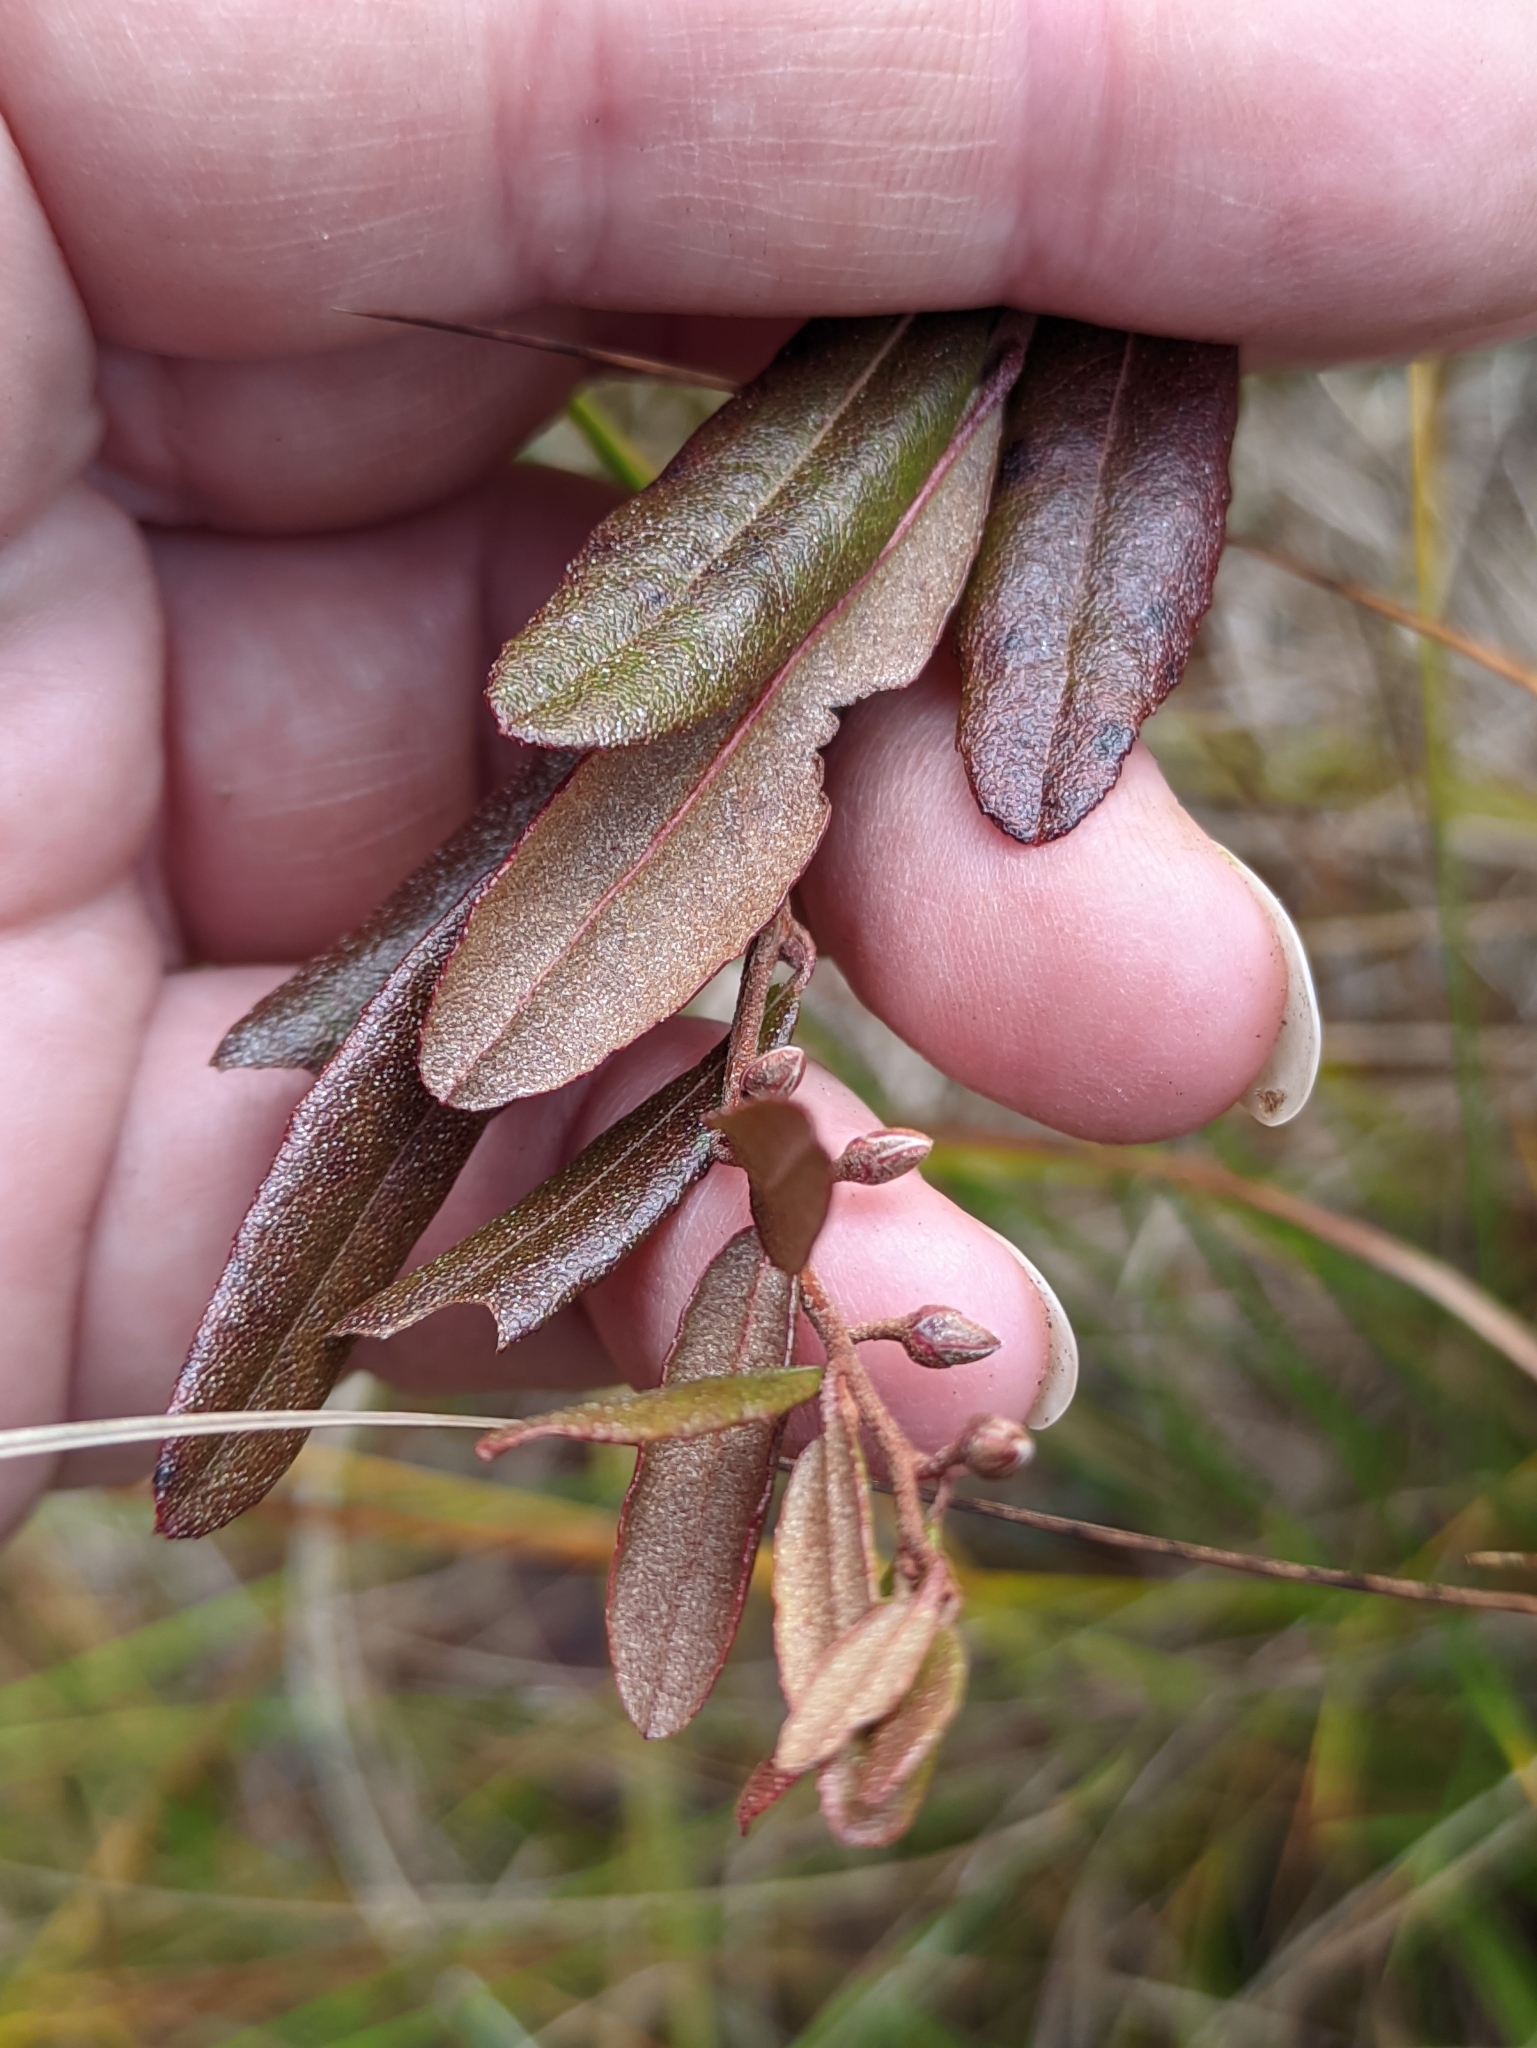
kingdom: Plantae
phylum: Tracheophyta
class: Magnoliopsida
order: Ericales
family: Ericaceae
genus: Chamaedaphne
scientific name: Chamaedaphne calyculata
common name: Leatherleaf
